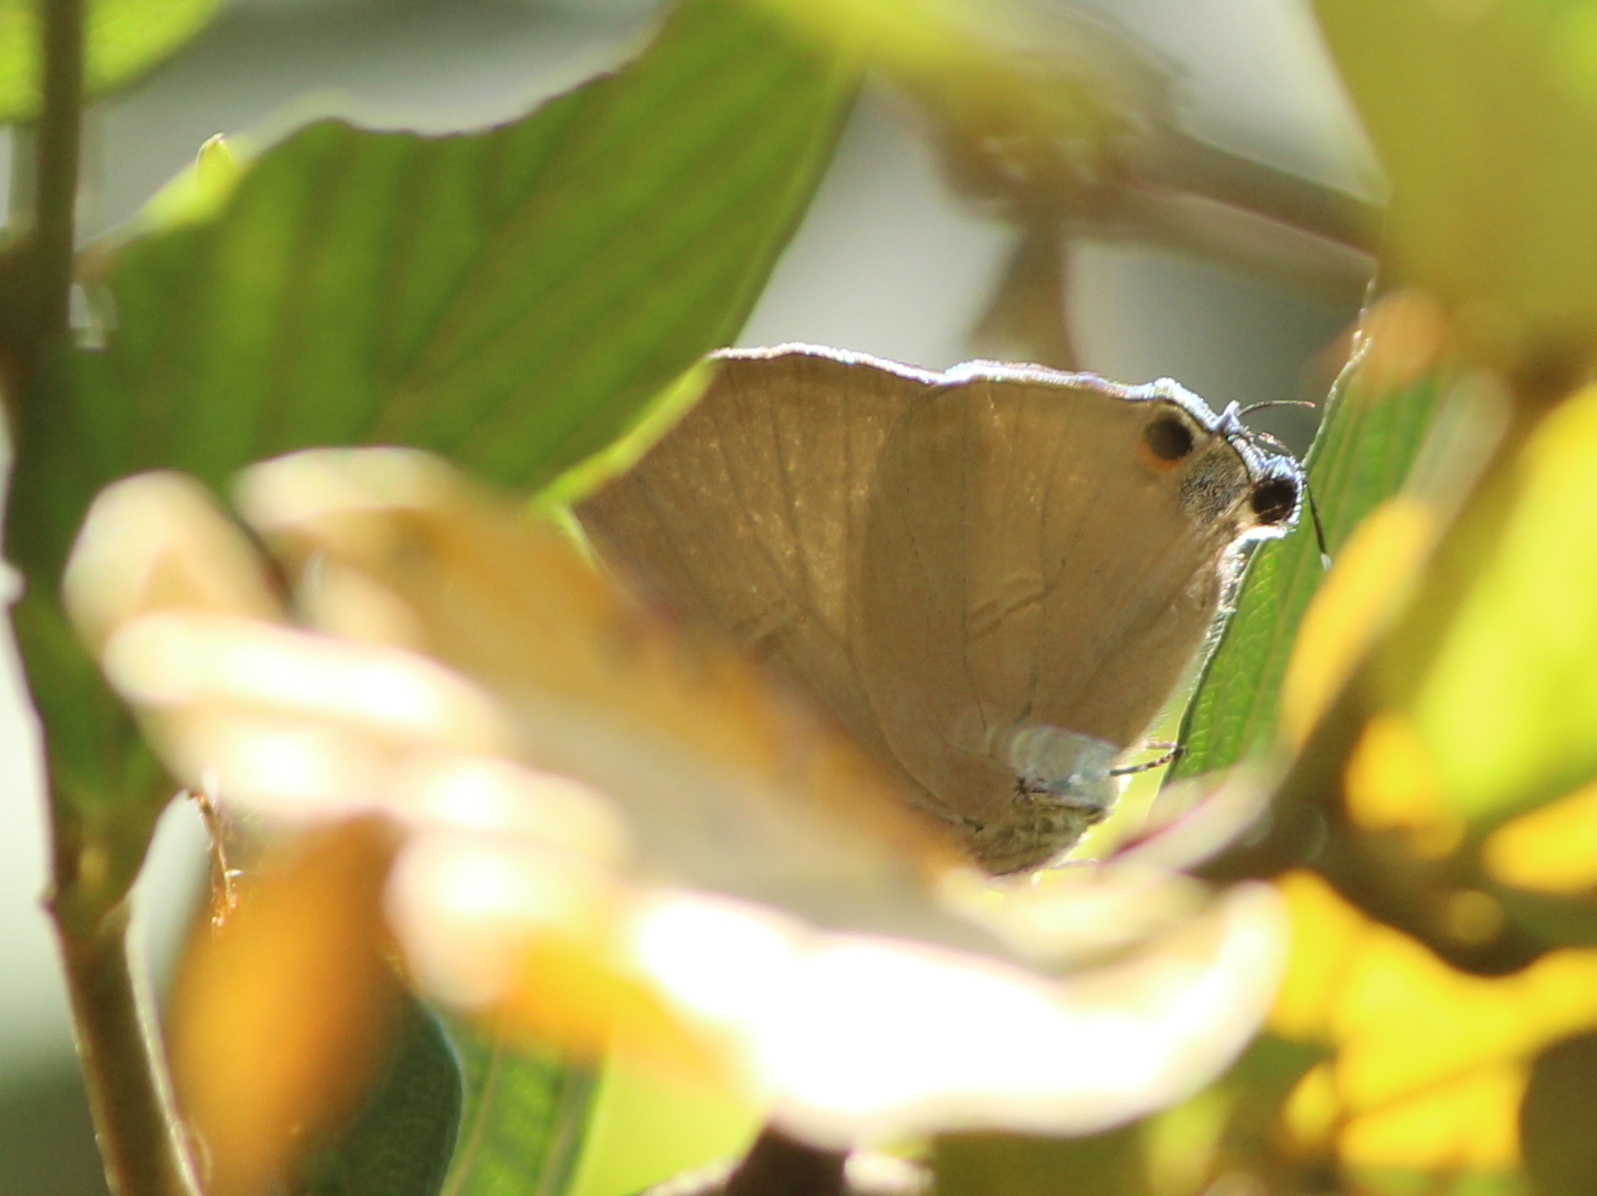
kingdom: Animalia
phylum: Arthropoda
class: Insecta
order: Lepidoptera
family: Lycaenidae
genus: Rapala
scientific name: Rapala iarbus
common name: Common red flash
